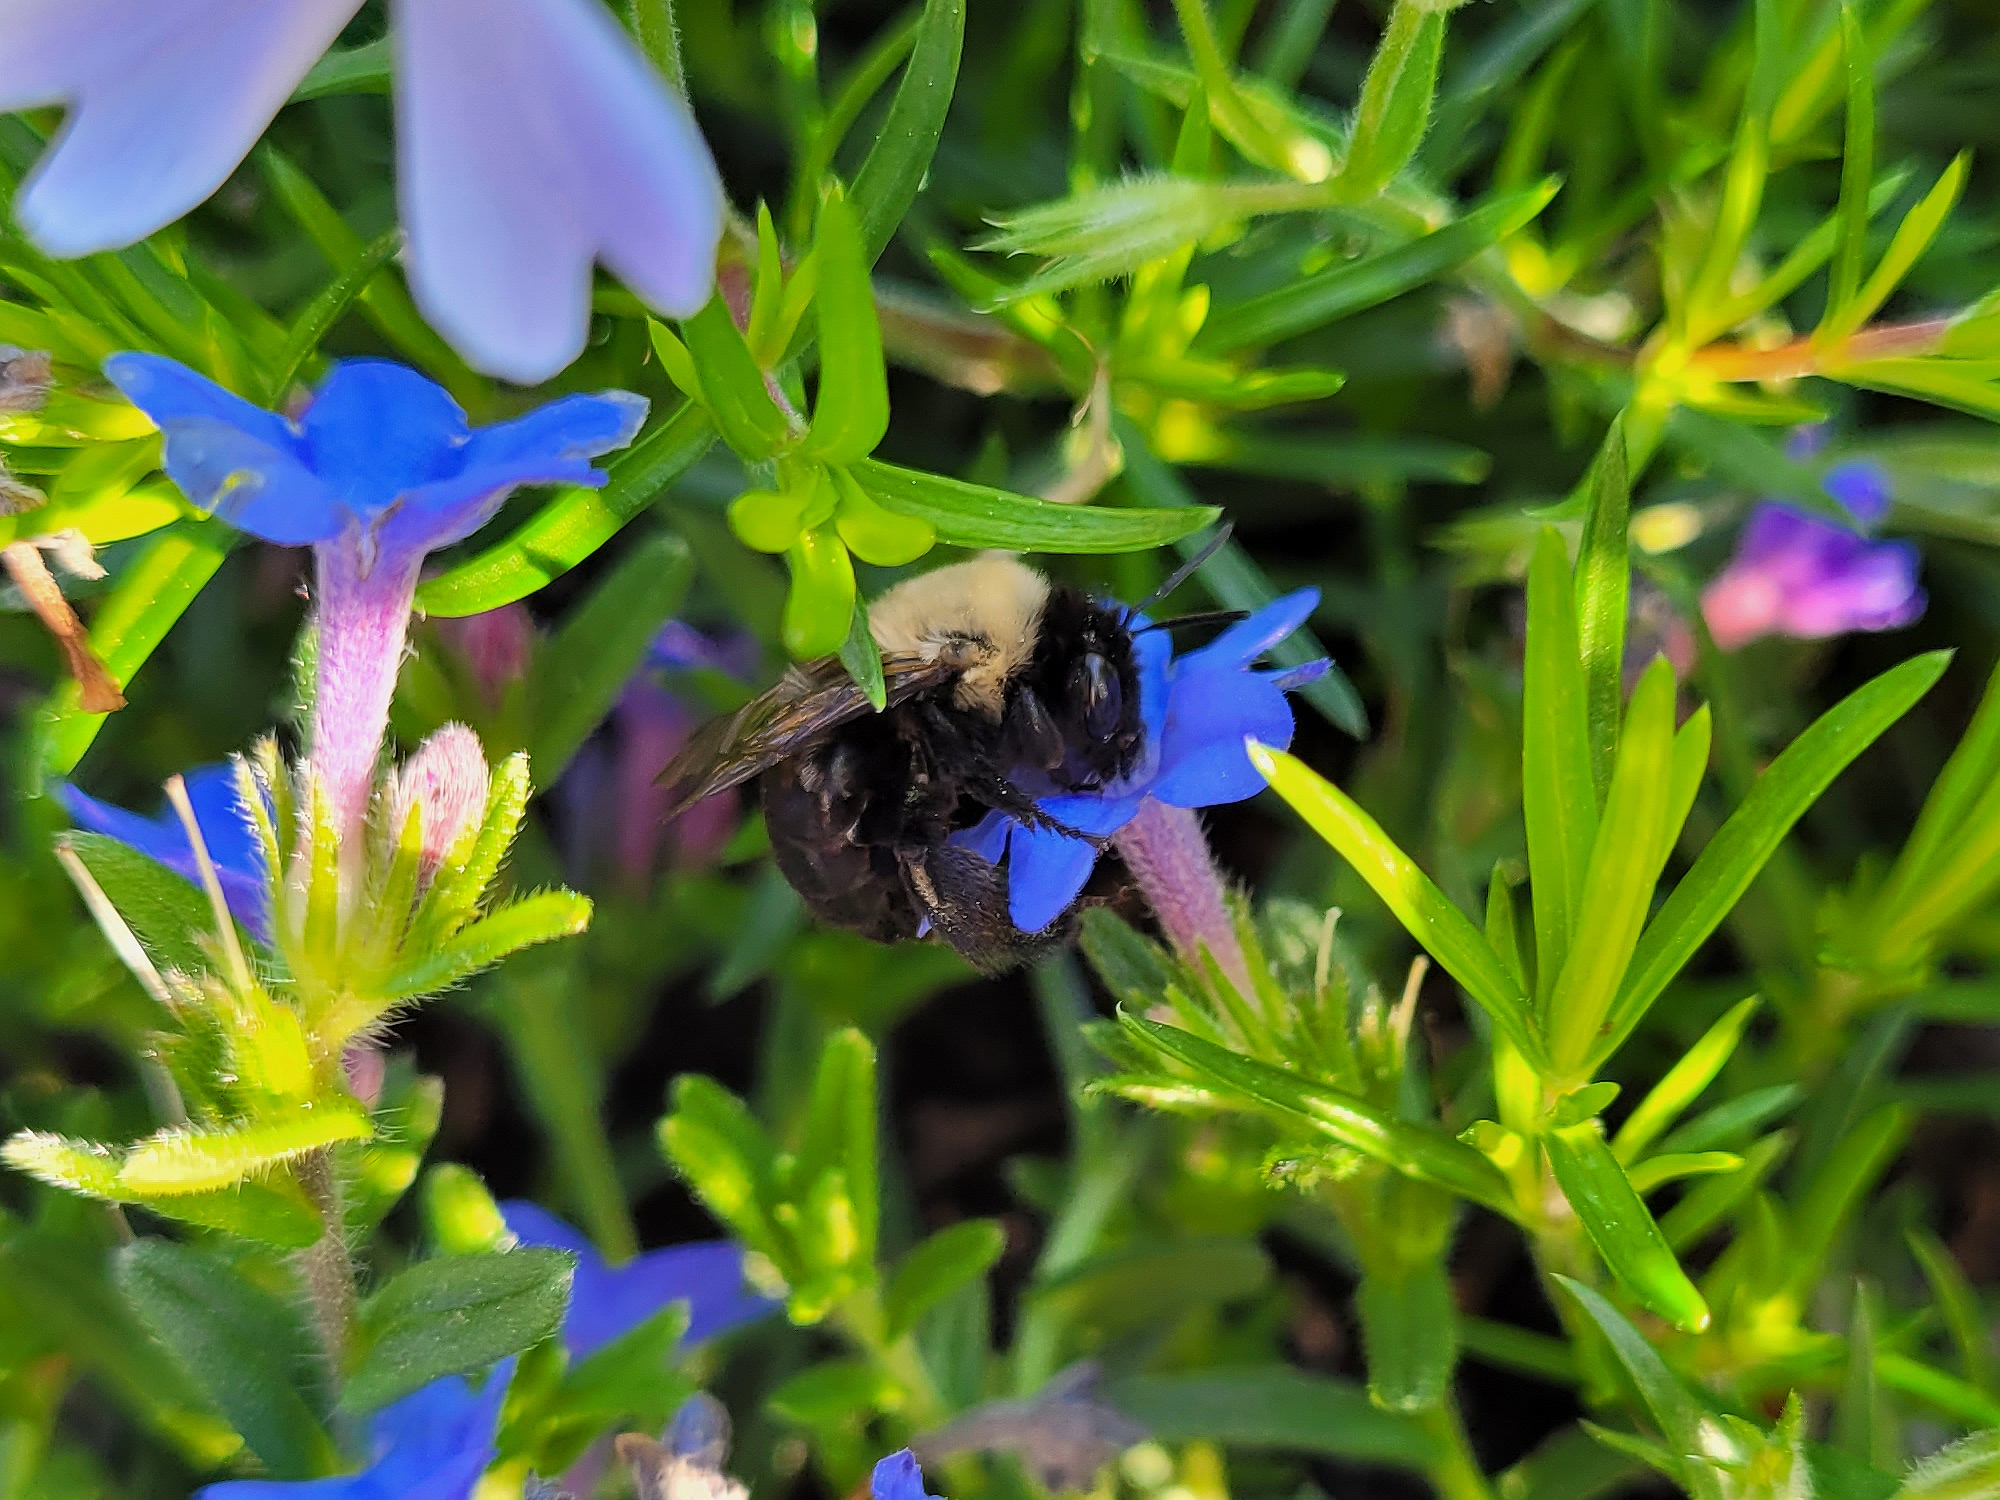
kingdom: Animalia
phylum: Arthropoda
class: Insecta
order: Hymenoptera
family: Apidae
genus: Habropoda
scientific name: Habropoda laboriosa
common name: Southeastern blueberry bee
